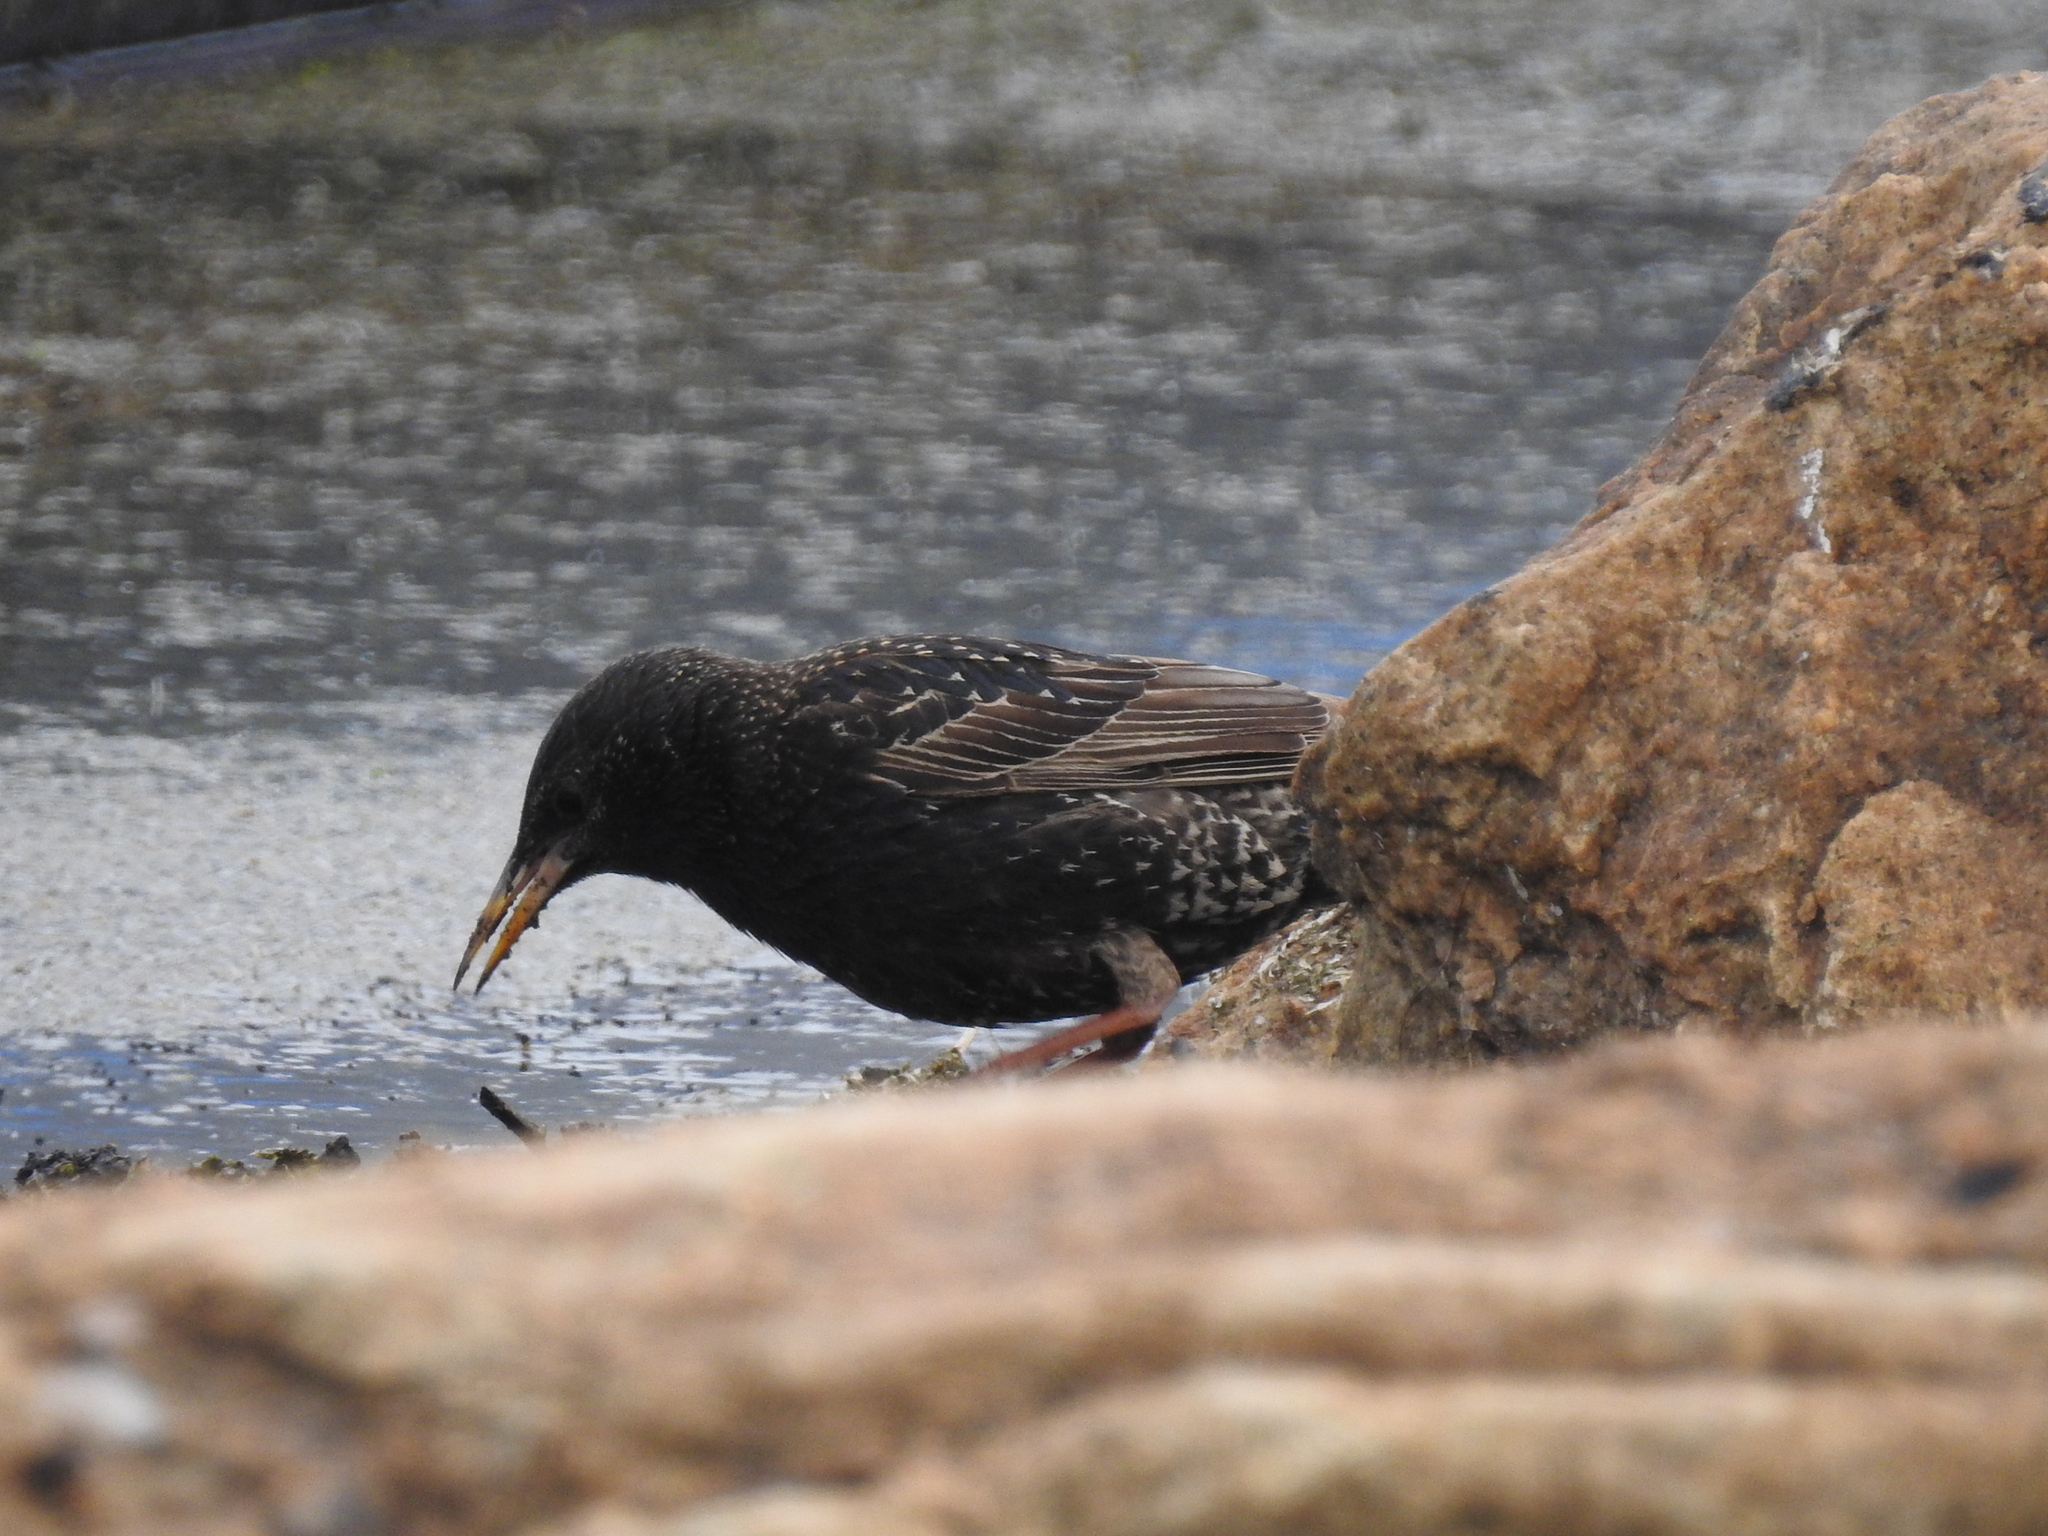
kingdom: Animalia
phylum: Chordata
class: Aves
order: Passeriformes
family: Sturnidae
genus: Sturnus
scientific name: Sturnus vulgaris
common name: Common starling
